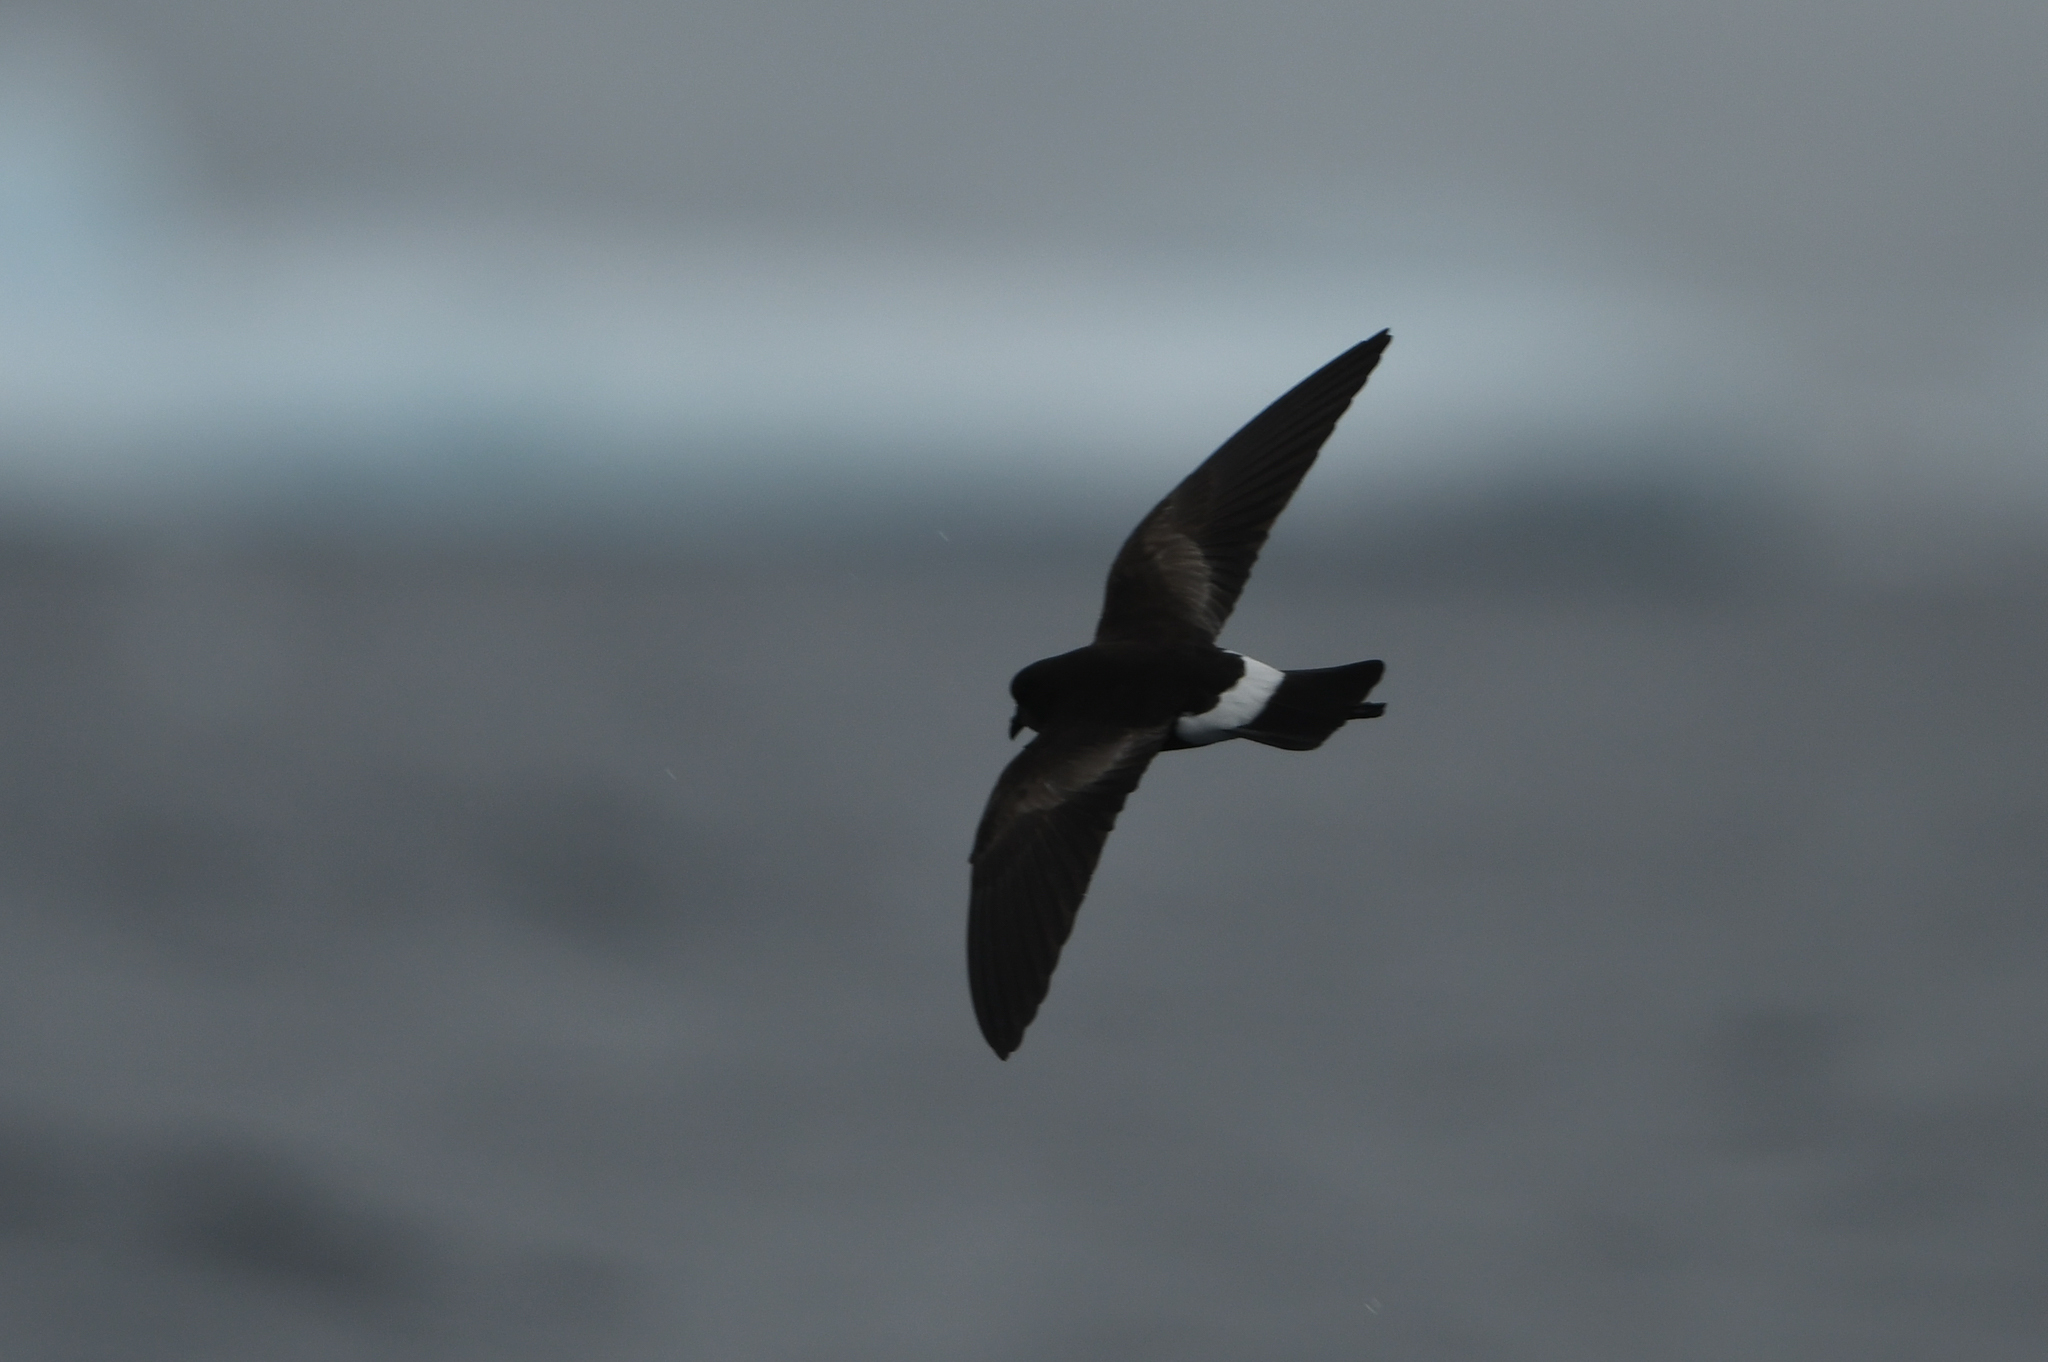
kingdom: Animalia
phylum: Chordata
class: Aves
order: Procellariiformes
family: Hydrobatidae
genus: Oceanites
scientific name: Oceanites oceanicus
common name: Wilson's storm petrel
